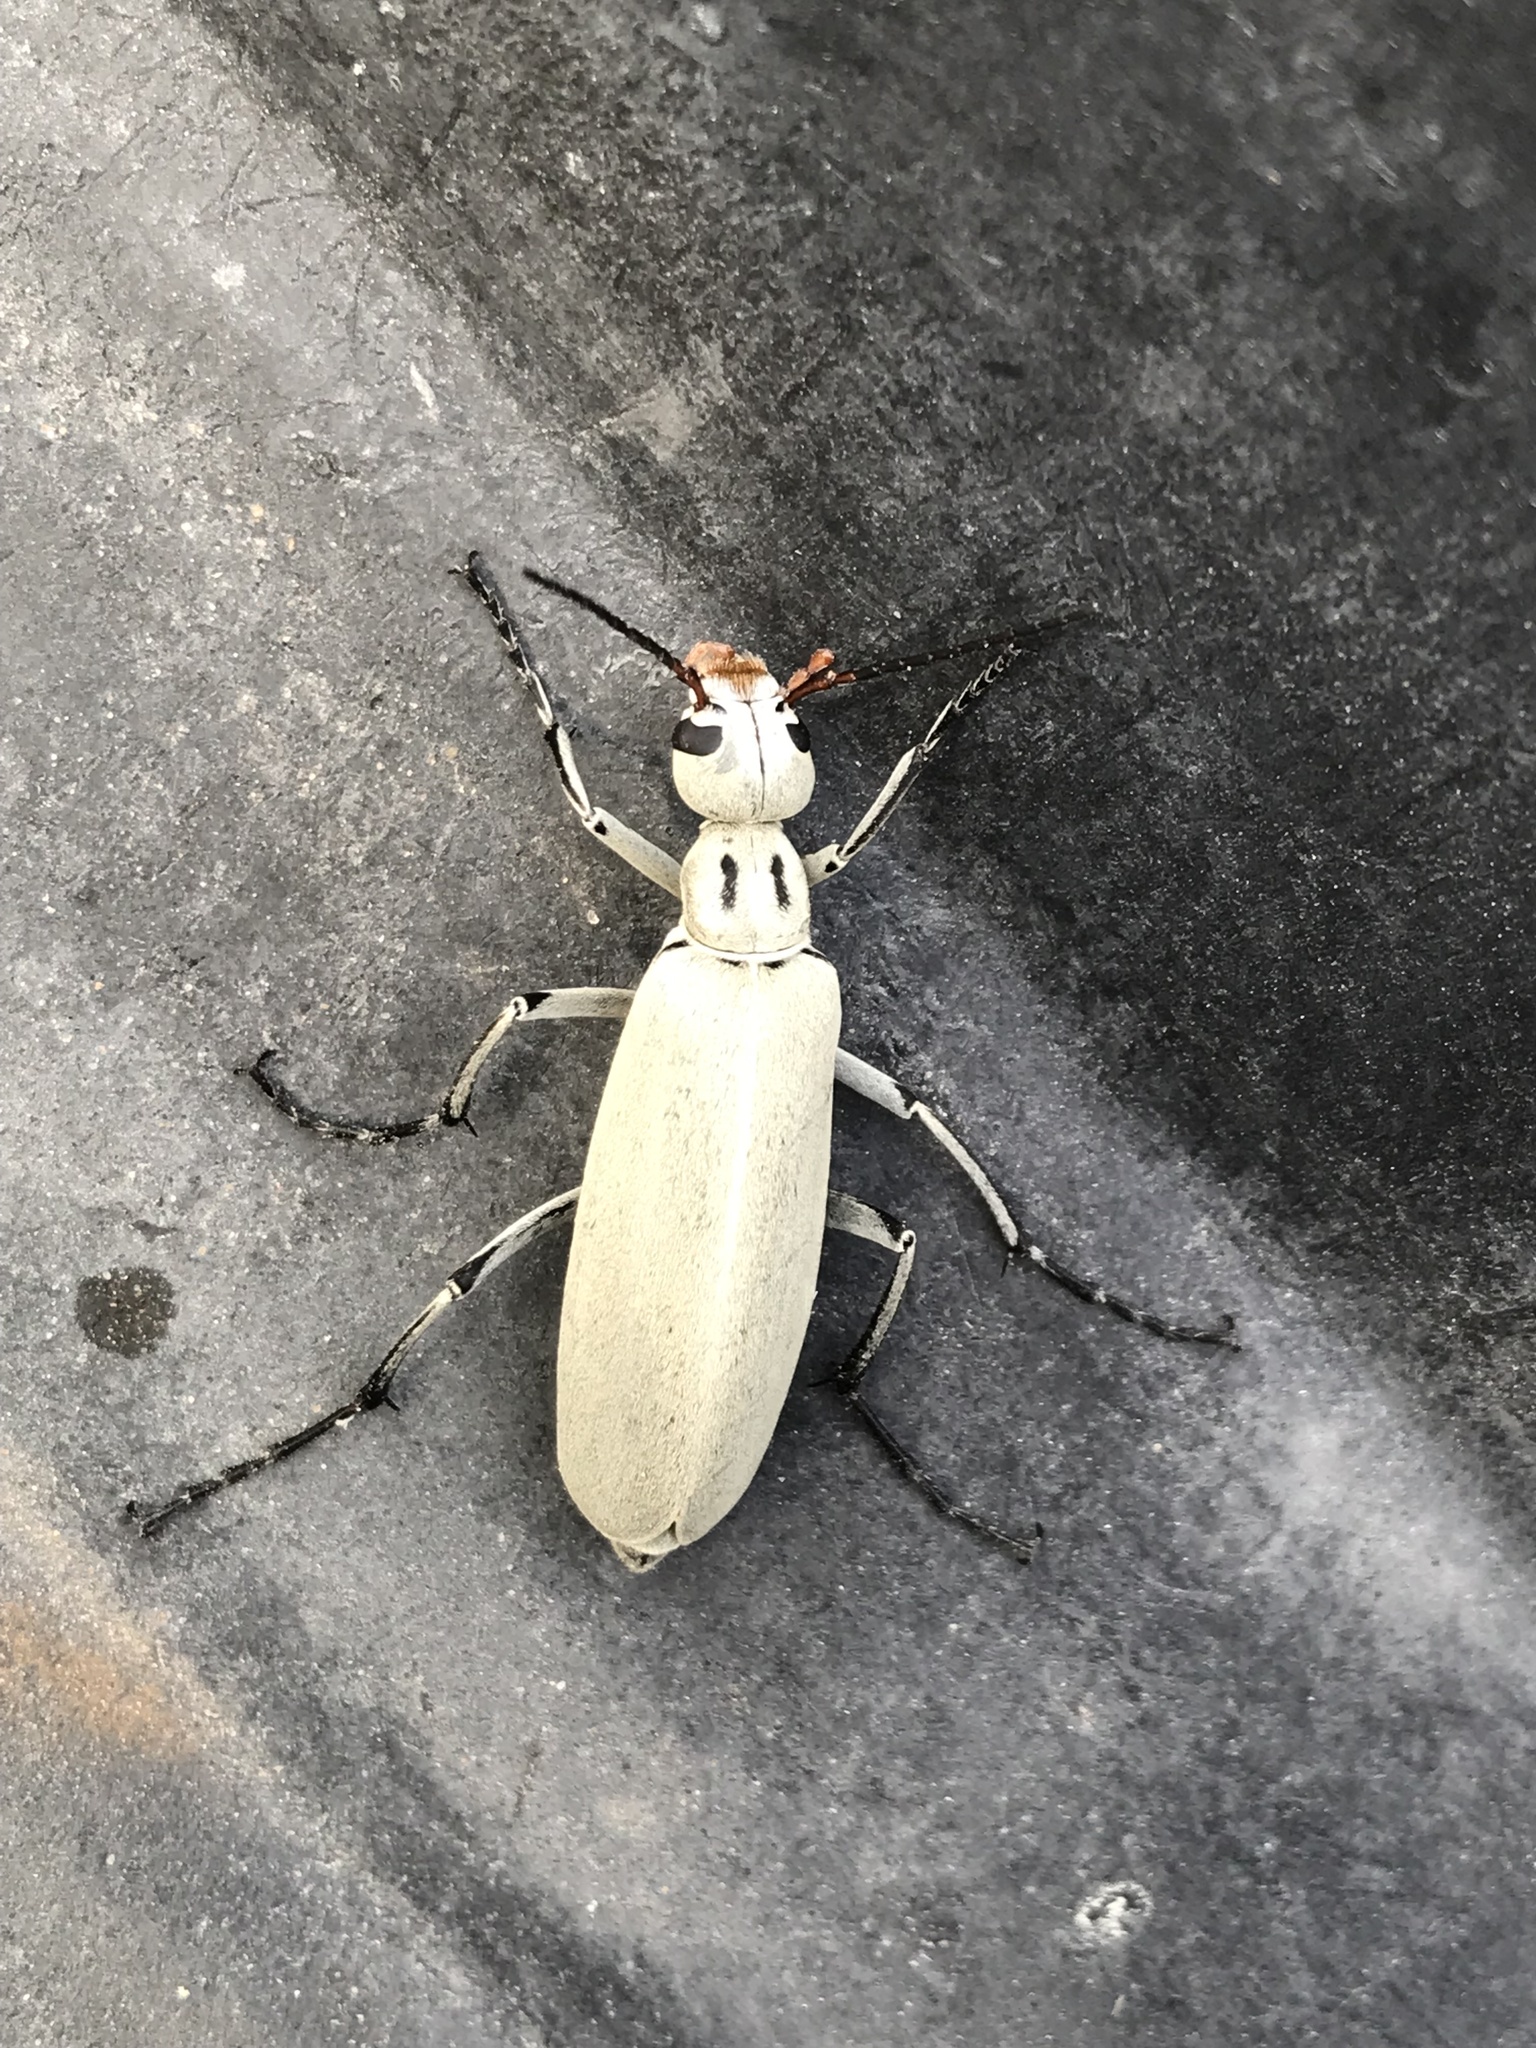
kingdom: Animalia
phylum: Arthropoda
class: Insecta
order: Coleoptera
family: Meloidae
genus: Epicauta
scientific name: Epicauta albida
